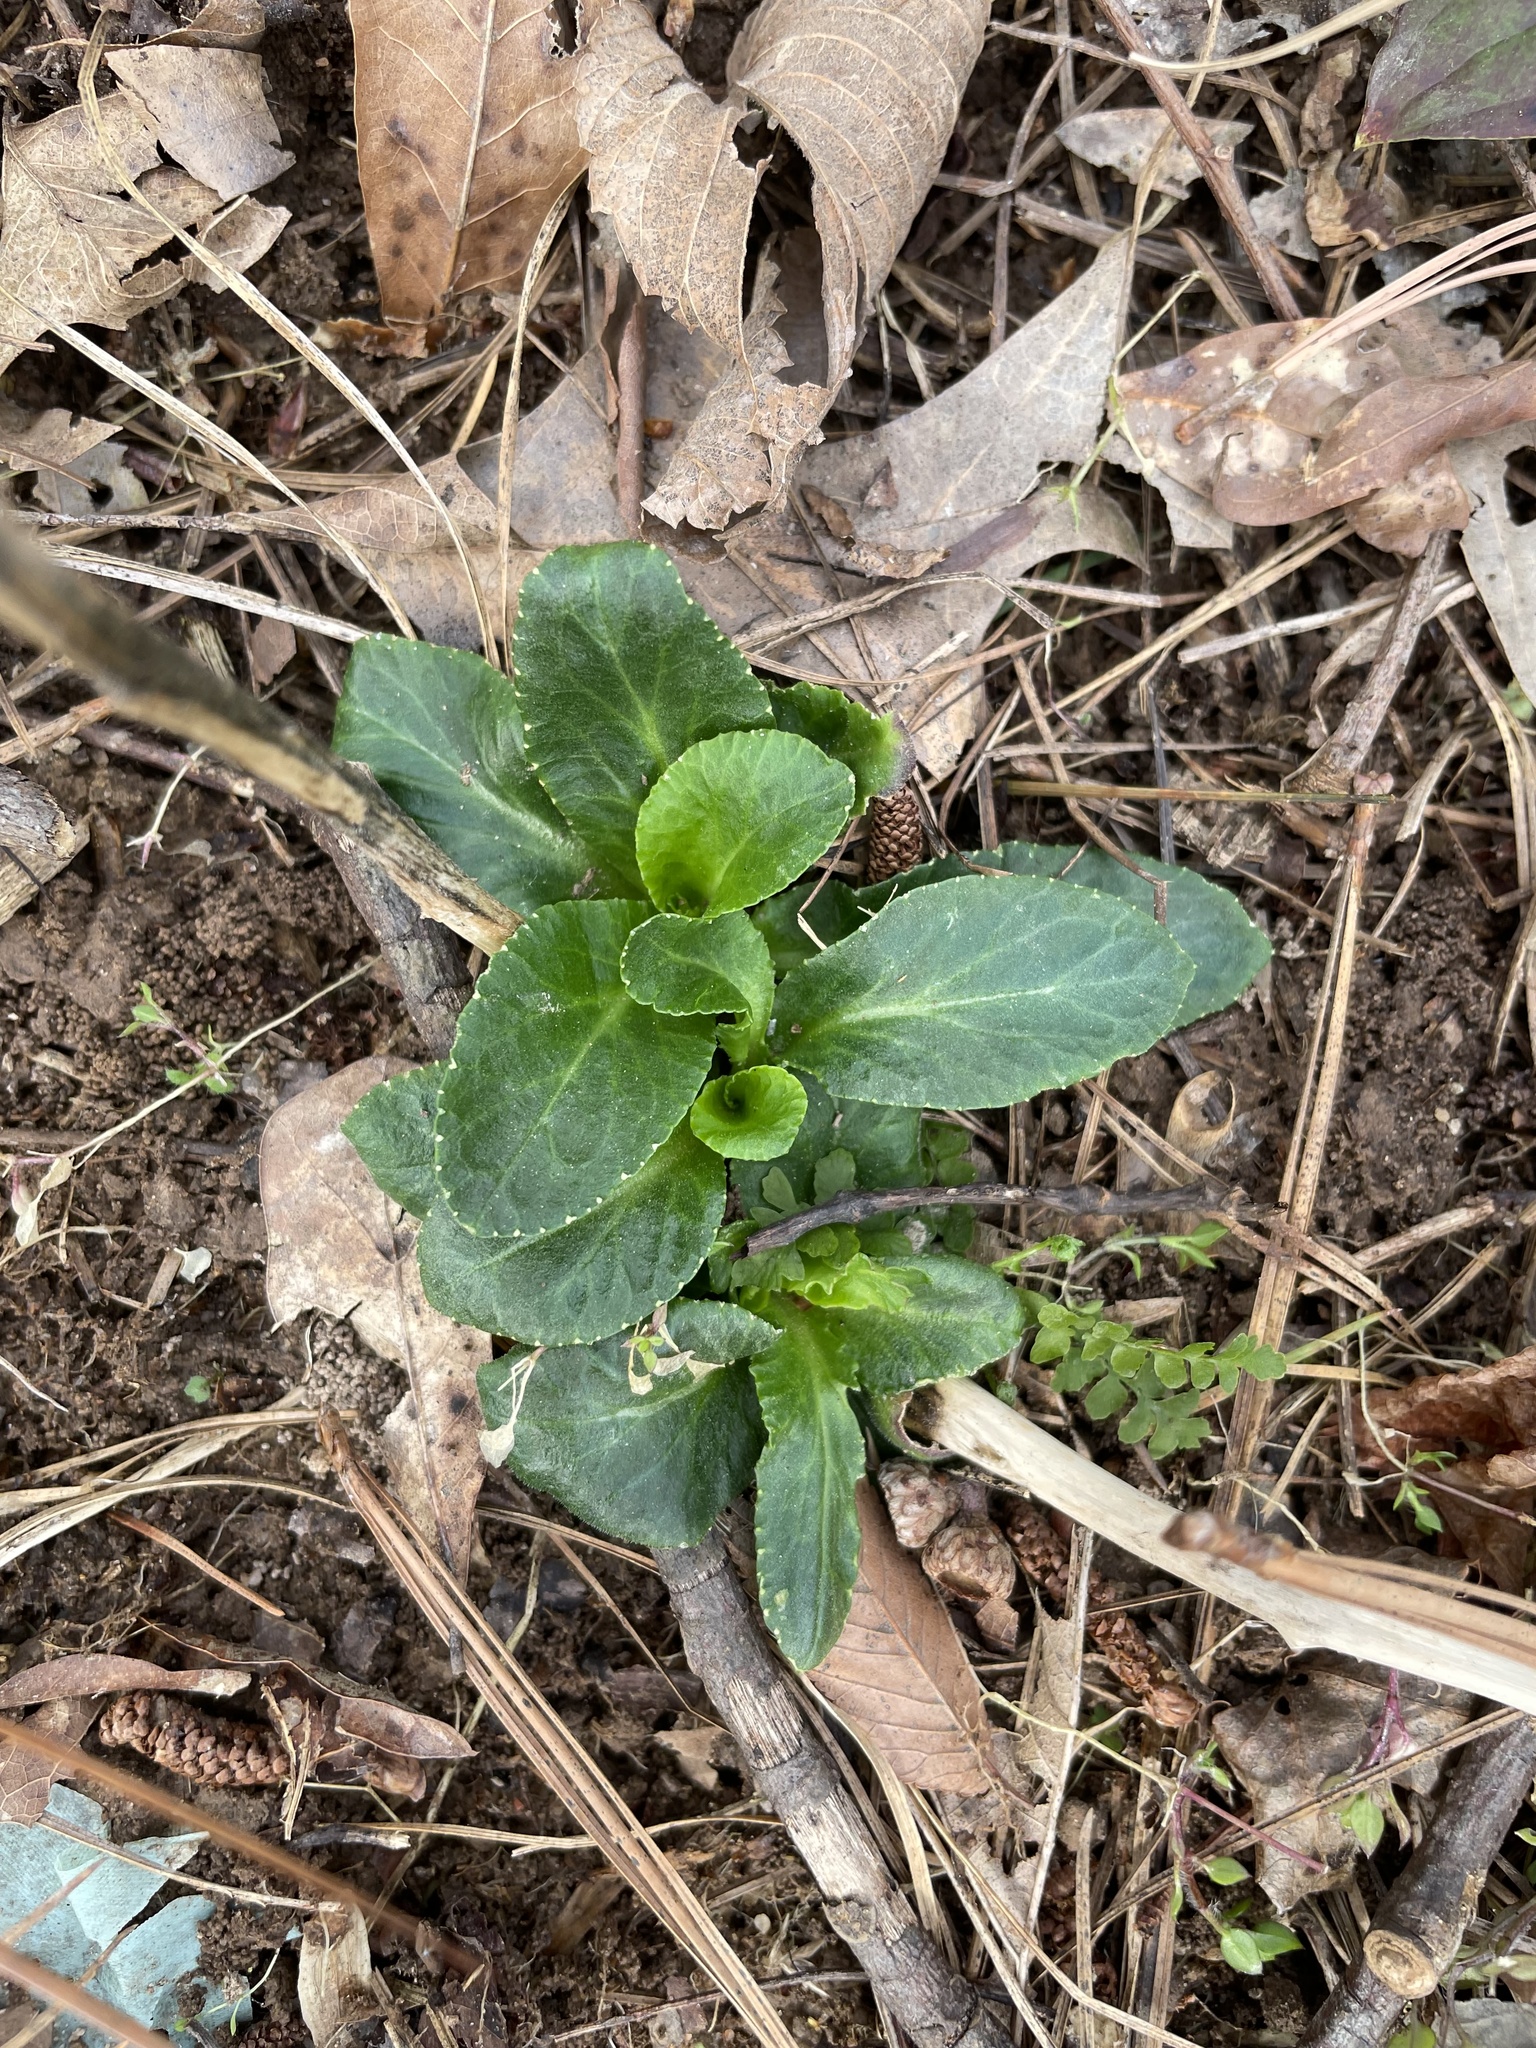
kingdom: Plantae
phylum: Tracheophyta
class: Magnoliopsida
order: Asterales
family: Campanulaceae
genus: Lobelia
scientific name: Lobelia puberula
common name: Purple dewdrop
